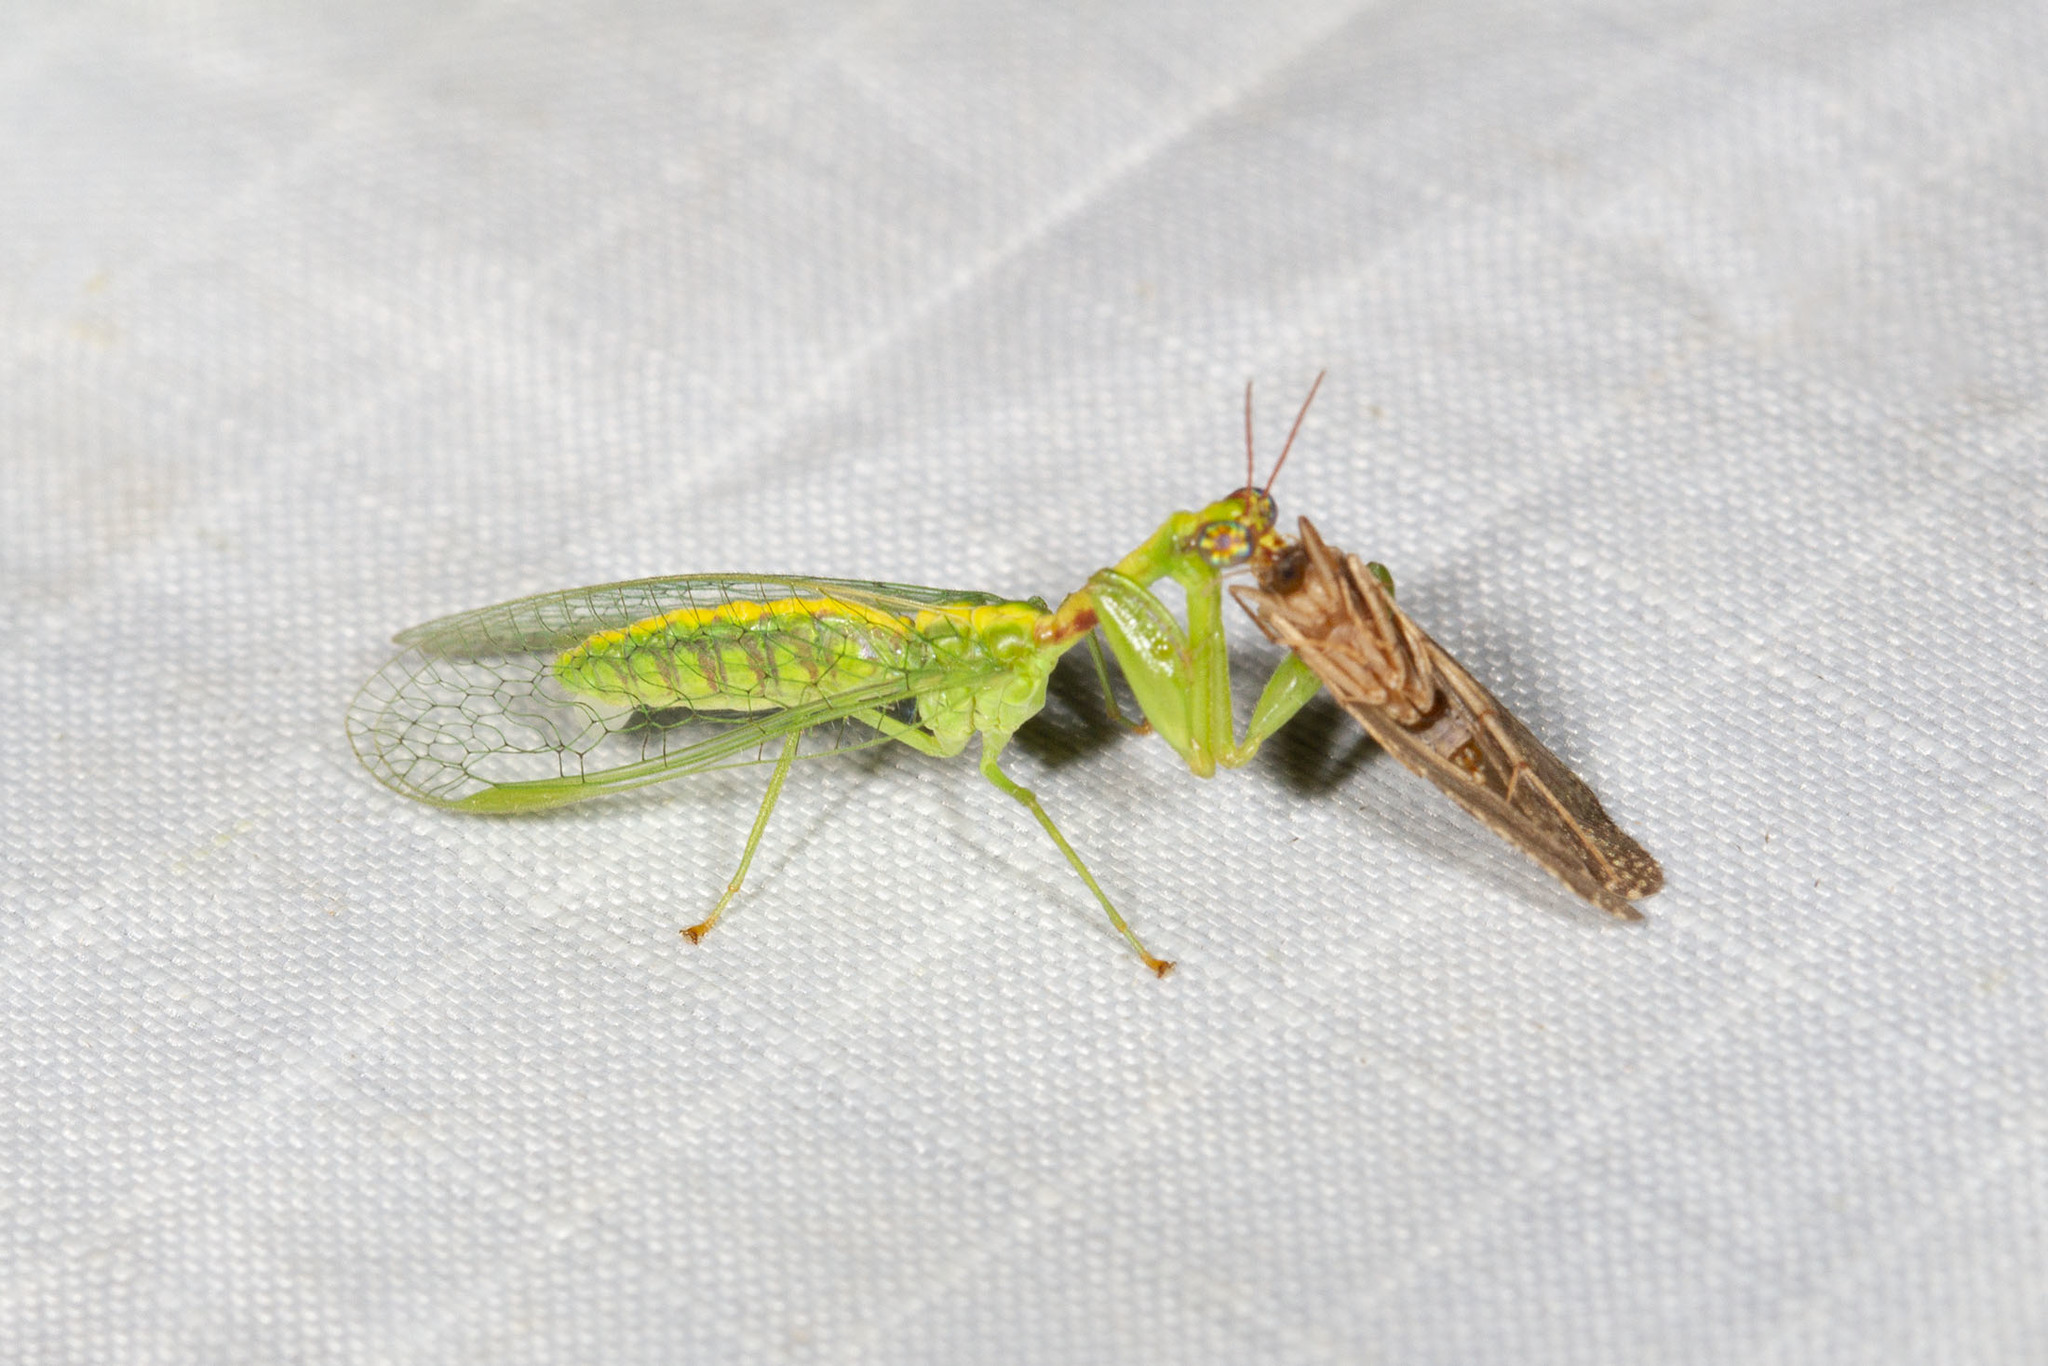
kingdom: Animalia
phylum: Arthropoda
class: Insecta
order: Neuroptera
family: Mantispidae
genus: Zeugomantispa
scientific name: Zeugomantispa minuta
